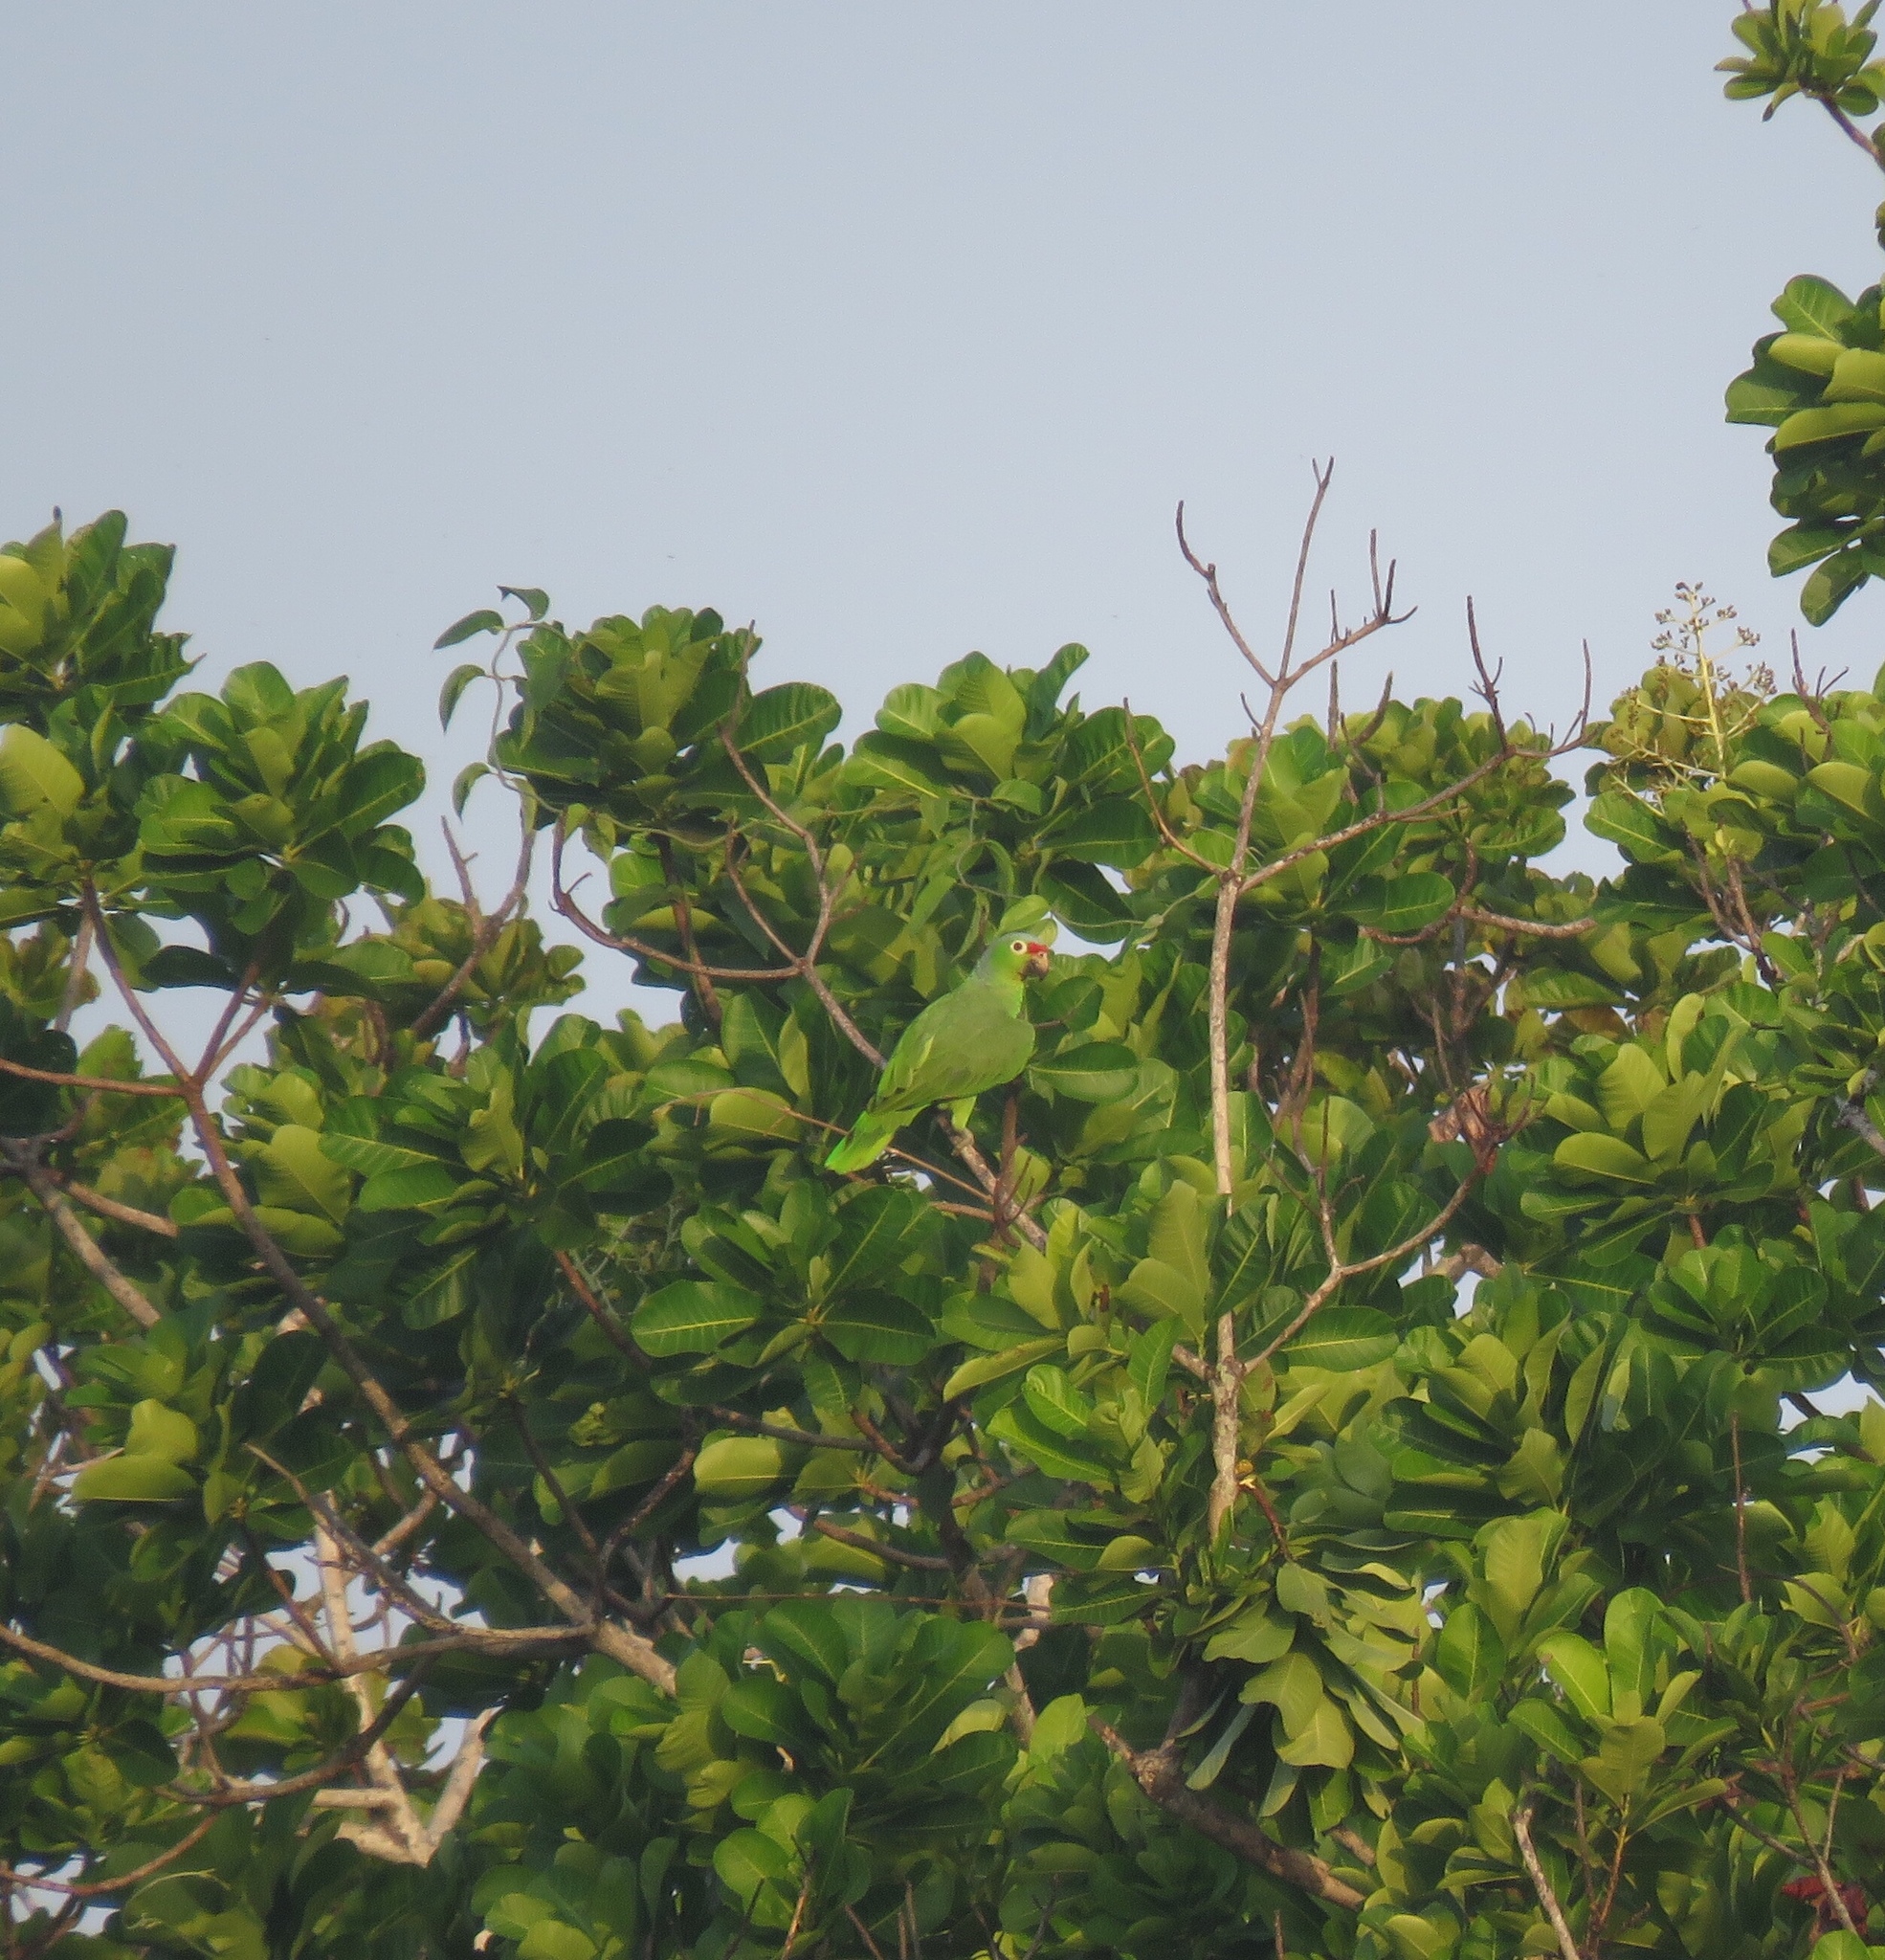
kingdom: Animalia
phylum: Chordata
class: Aves
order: Psittaciformes
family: Psittacidae
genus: Amazona
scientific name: Amazona autumnalis
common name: Red-lored amazon
